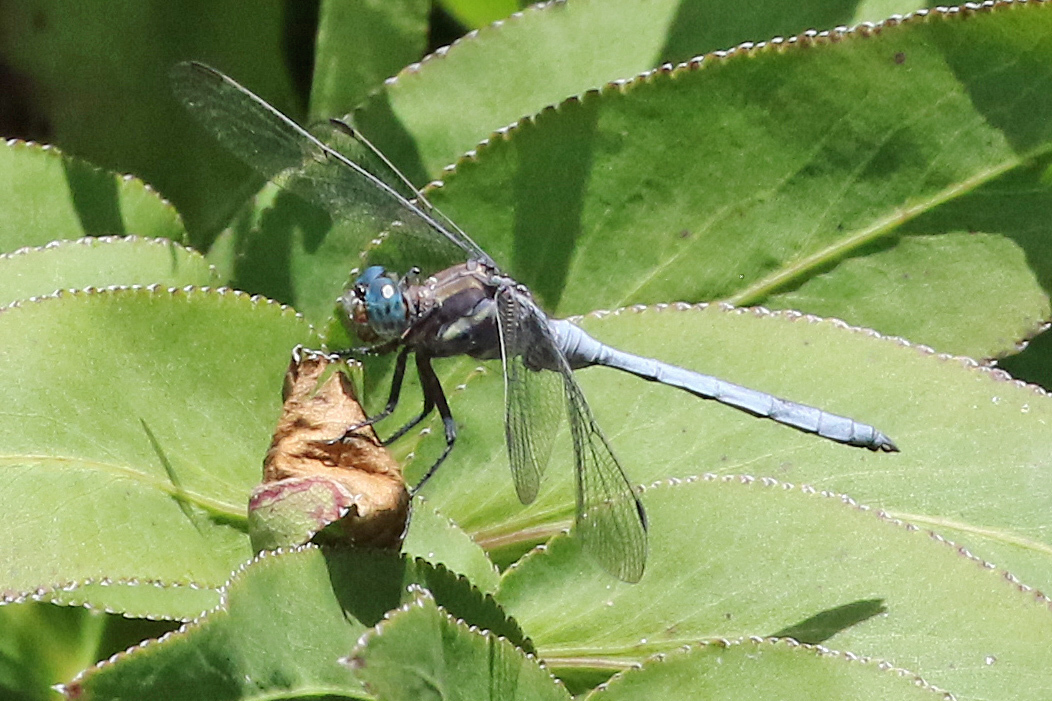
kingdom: Animalia
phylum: Arthropoda
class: Insecta
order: Odonata
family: Libellulidae
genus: Orthetrum
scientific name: Orthetrum julia
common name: Julia skimmer
